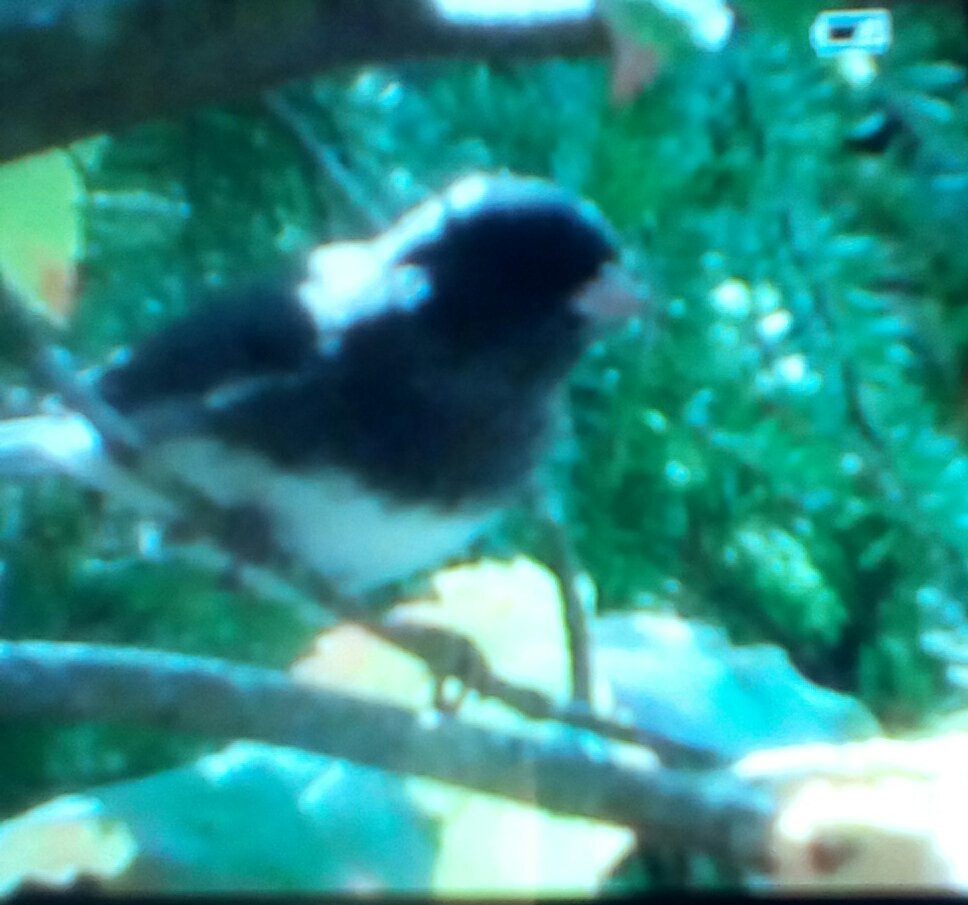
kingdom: Animalia
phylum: Chordata
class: Aves
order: Passeriformes
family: Passerellidae
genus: Junco
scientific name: Junco hyemalis
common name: Dark-eyed junco
